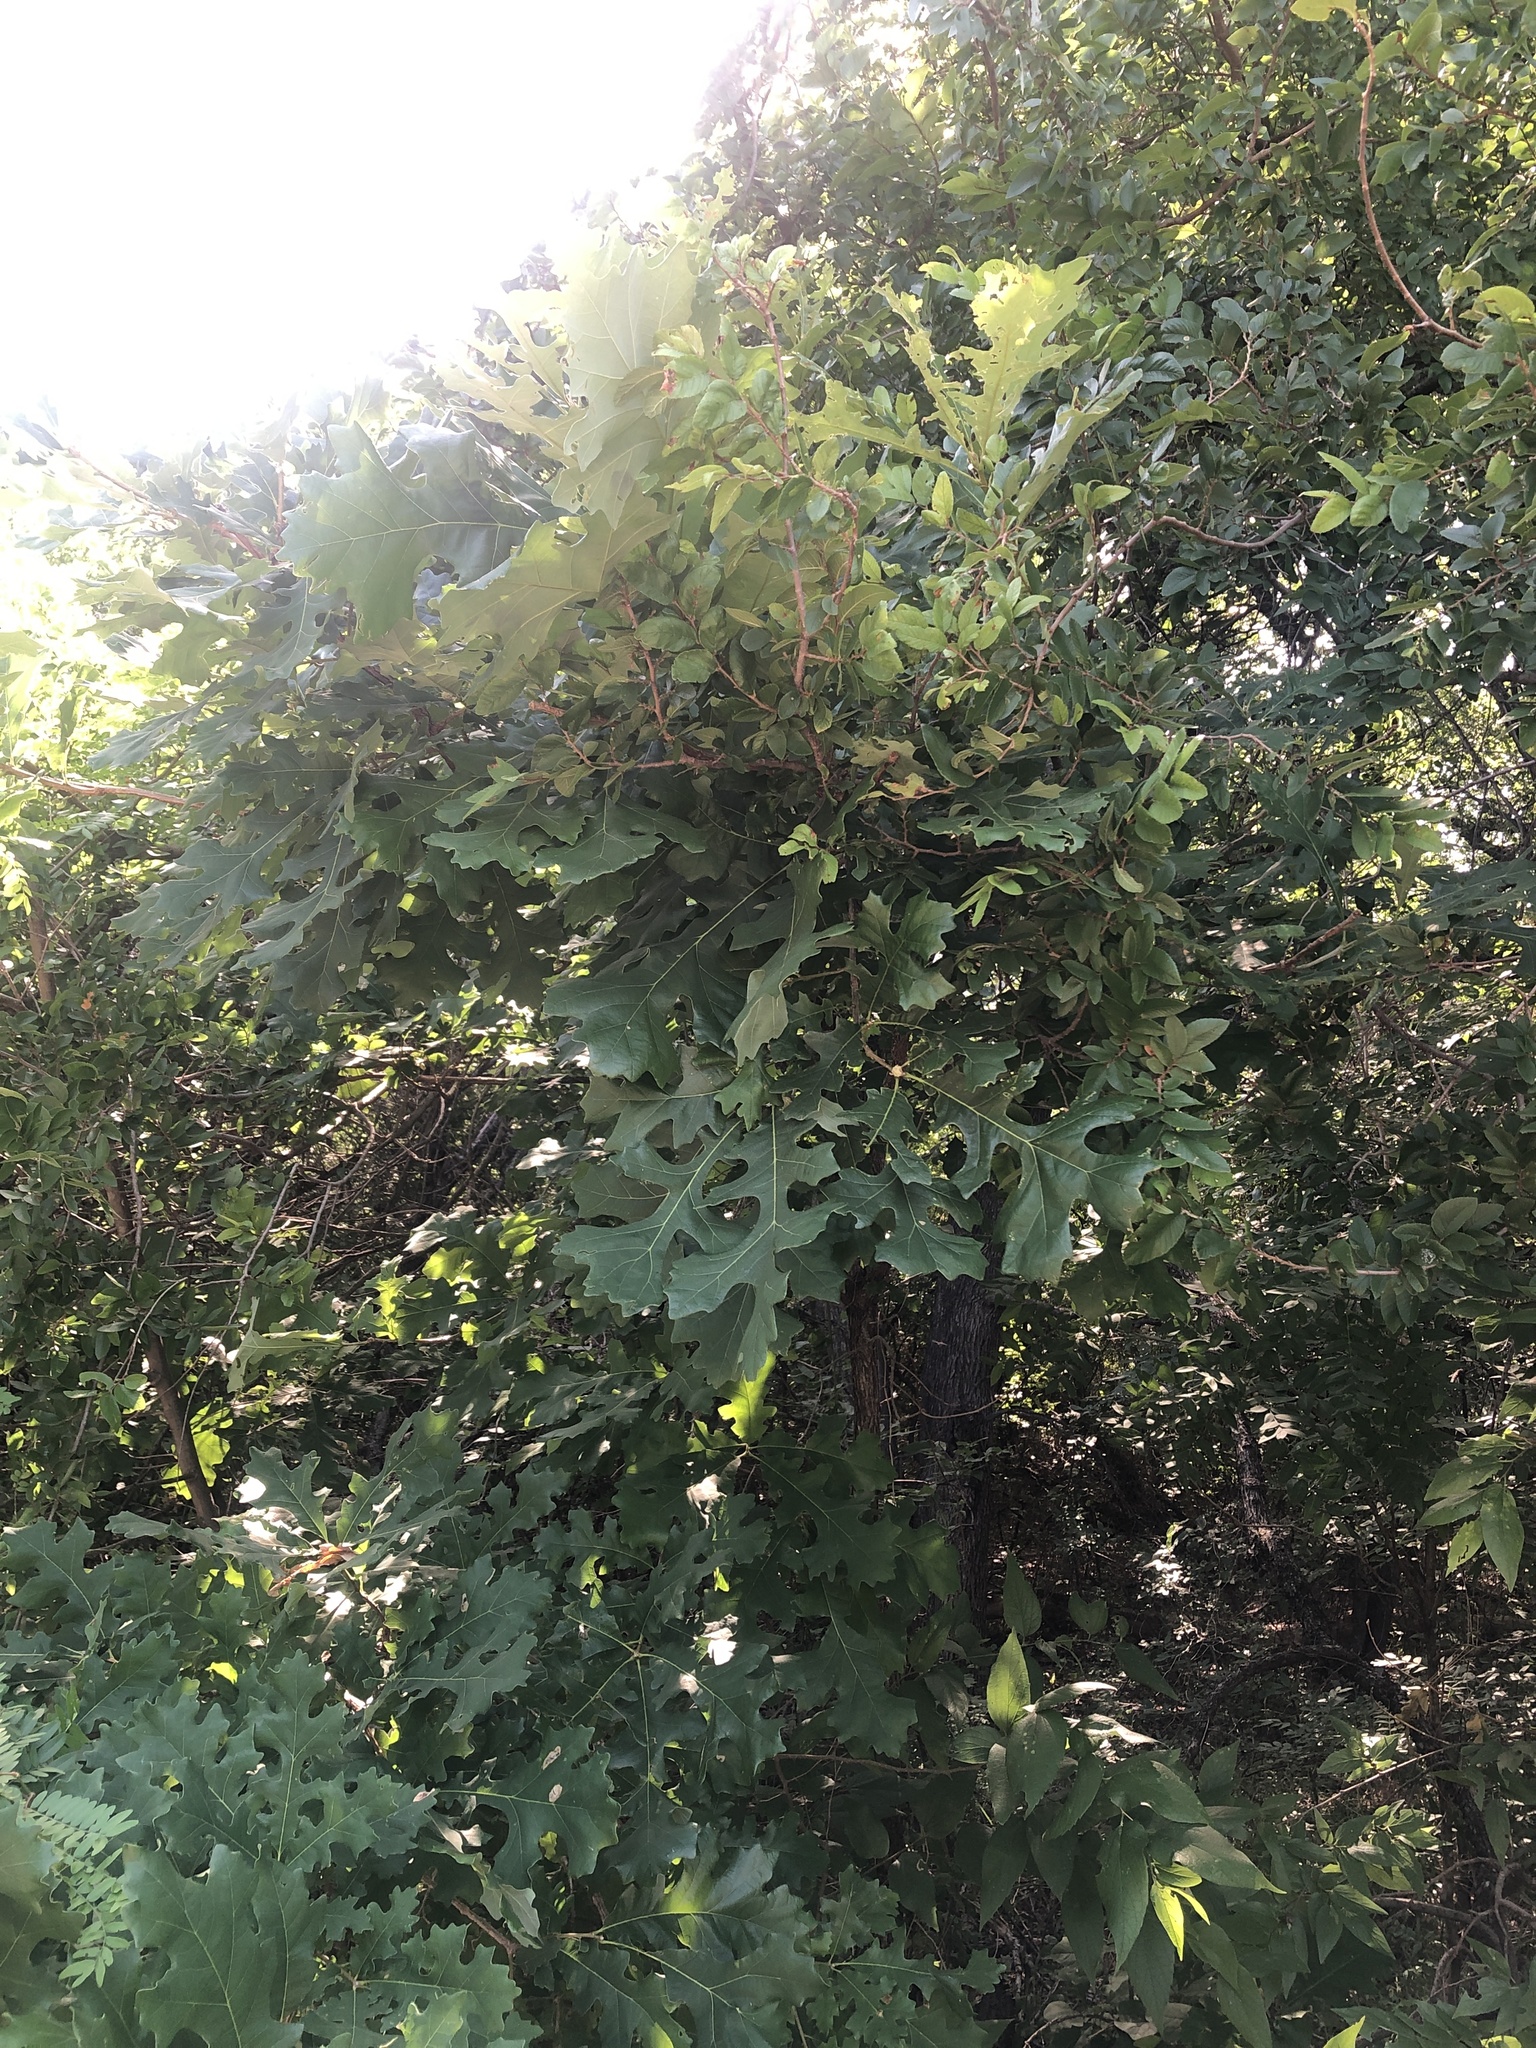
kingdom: Plantae
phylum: Tracheophyta
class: Magnoliopsida
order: Fagales
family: Fagaceae
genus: Quercus
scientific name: Quercus macrocarpa
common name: Bur oak
